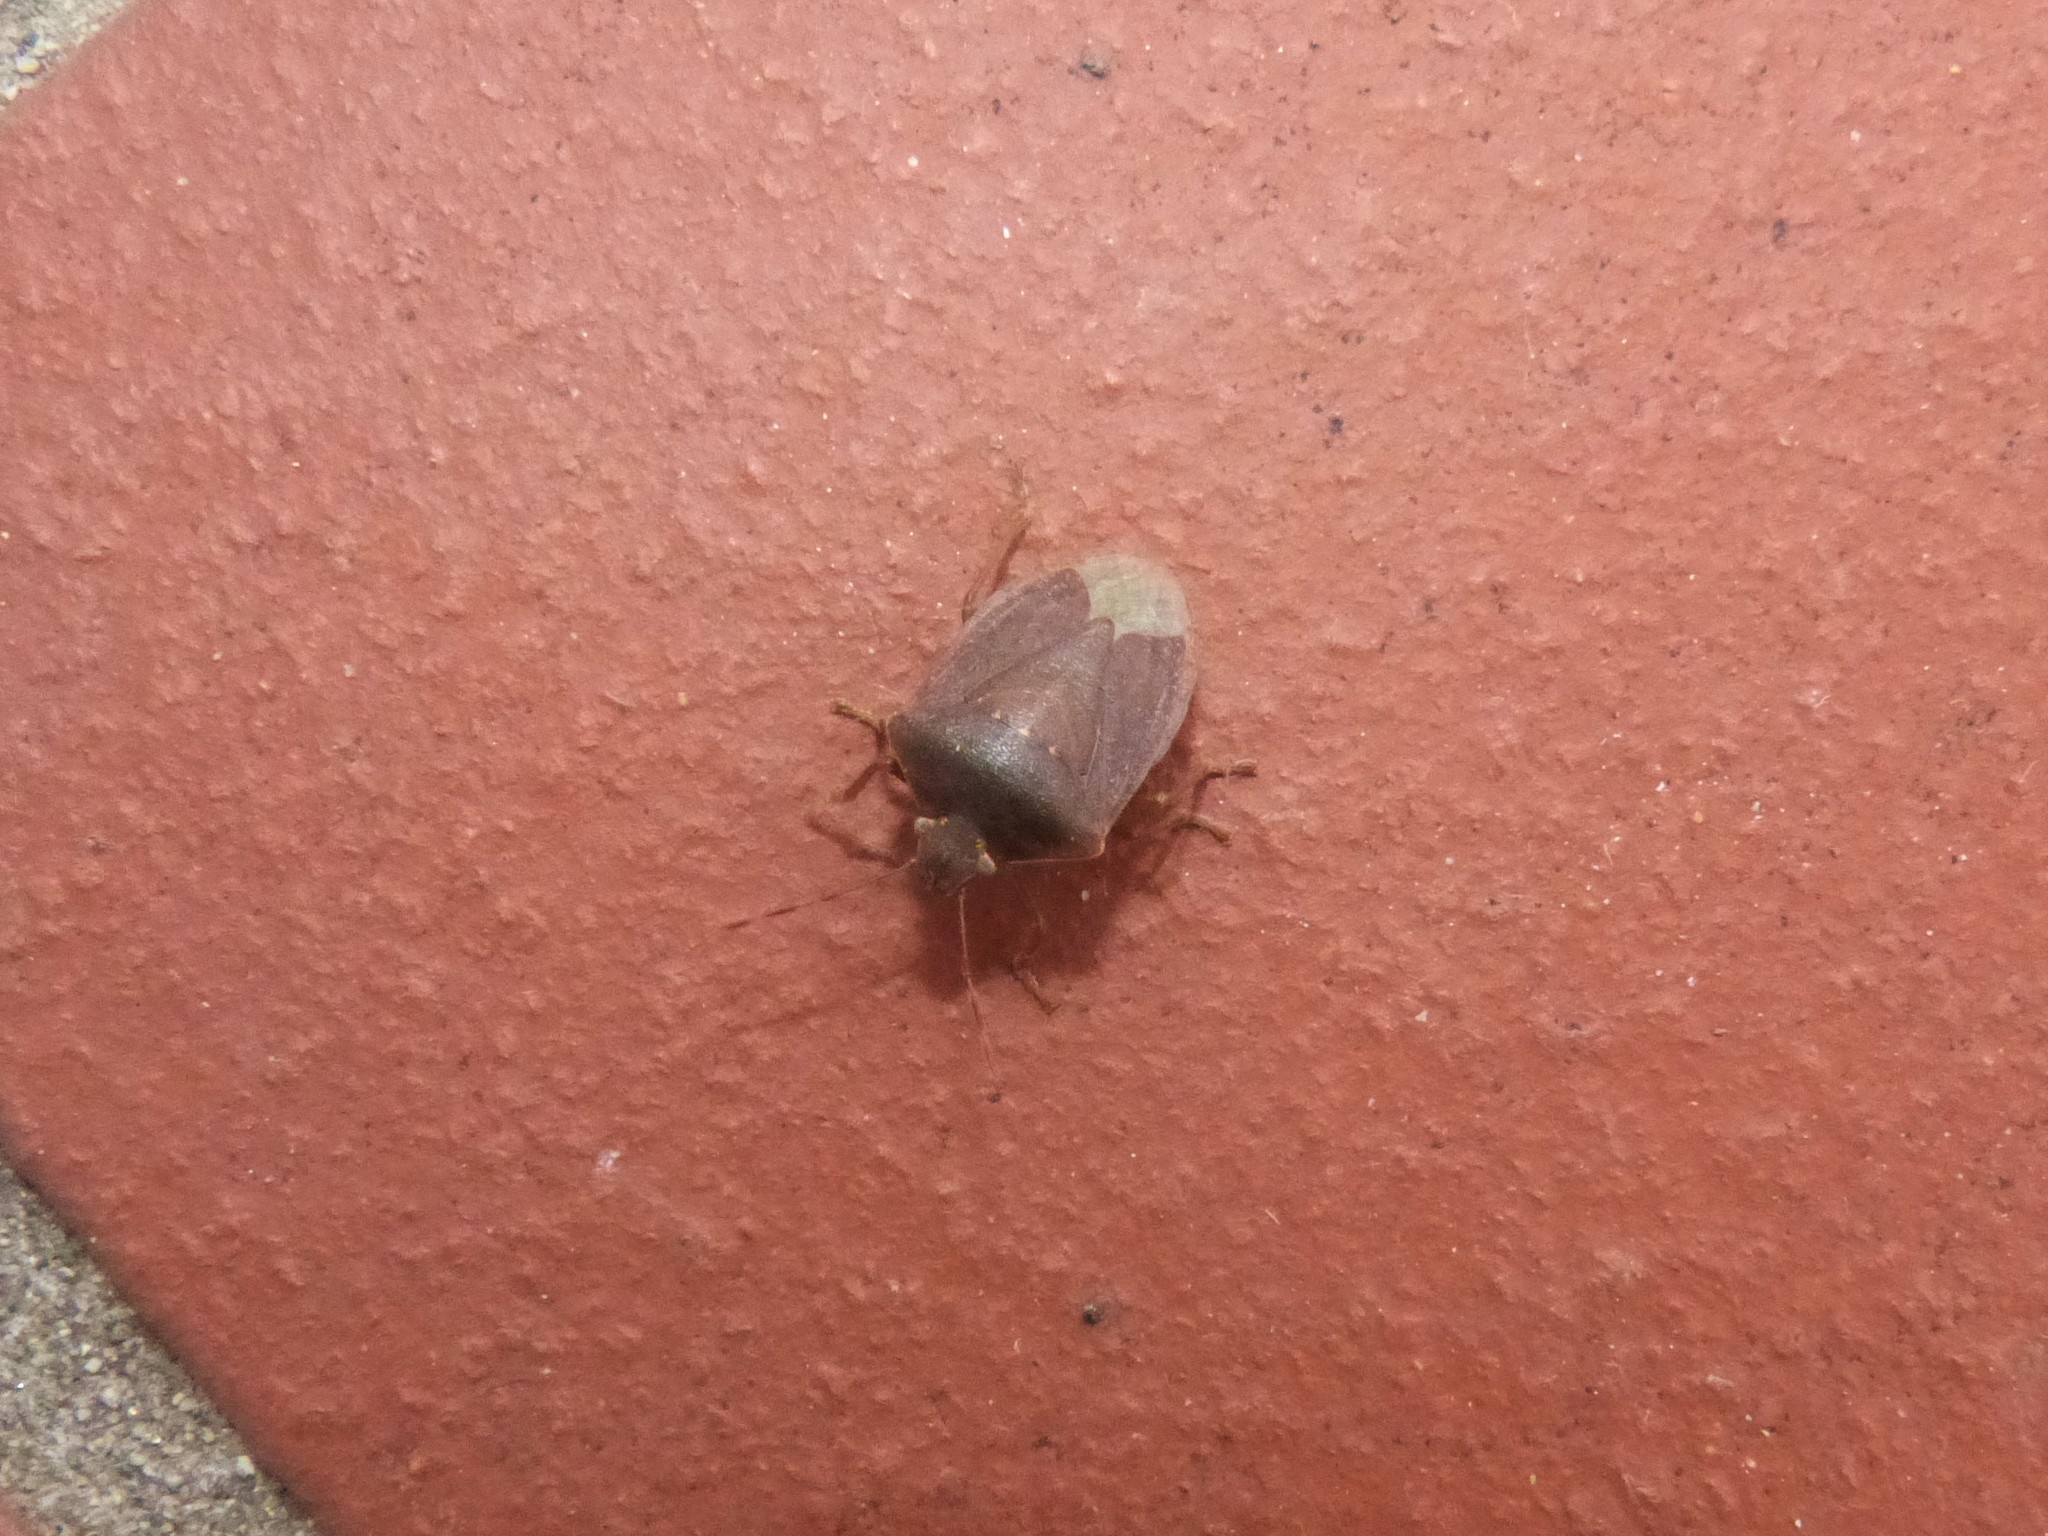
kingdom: Animalia
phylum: Arthropoda
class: Insecta
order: Hemiptera
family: Pentatomidae
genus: Nezara
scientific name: Nezara viridula
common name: Southern green stink bug
